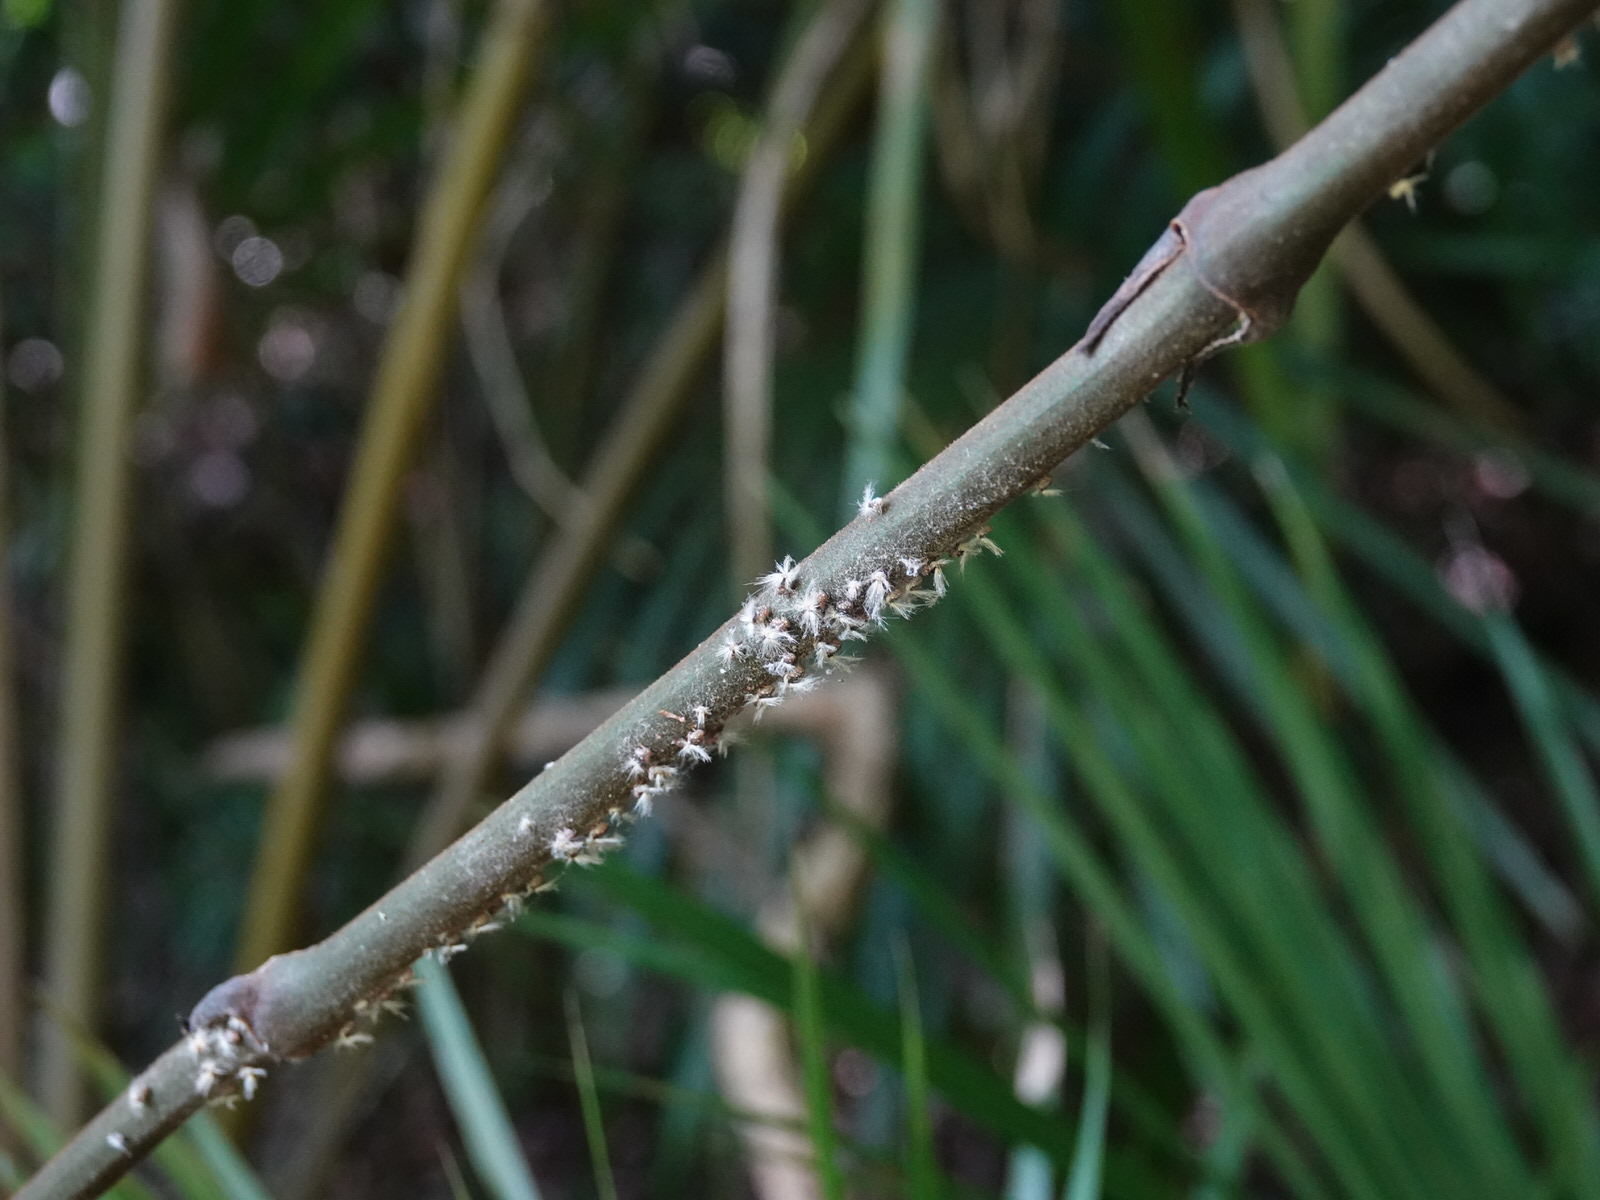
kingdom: Animalia
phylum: Arthropoda
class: Insecta
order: Hemiptera
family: Ricaniidae
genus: Scolypopa
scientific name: Scolypopa australis
